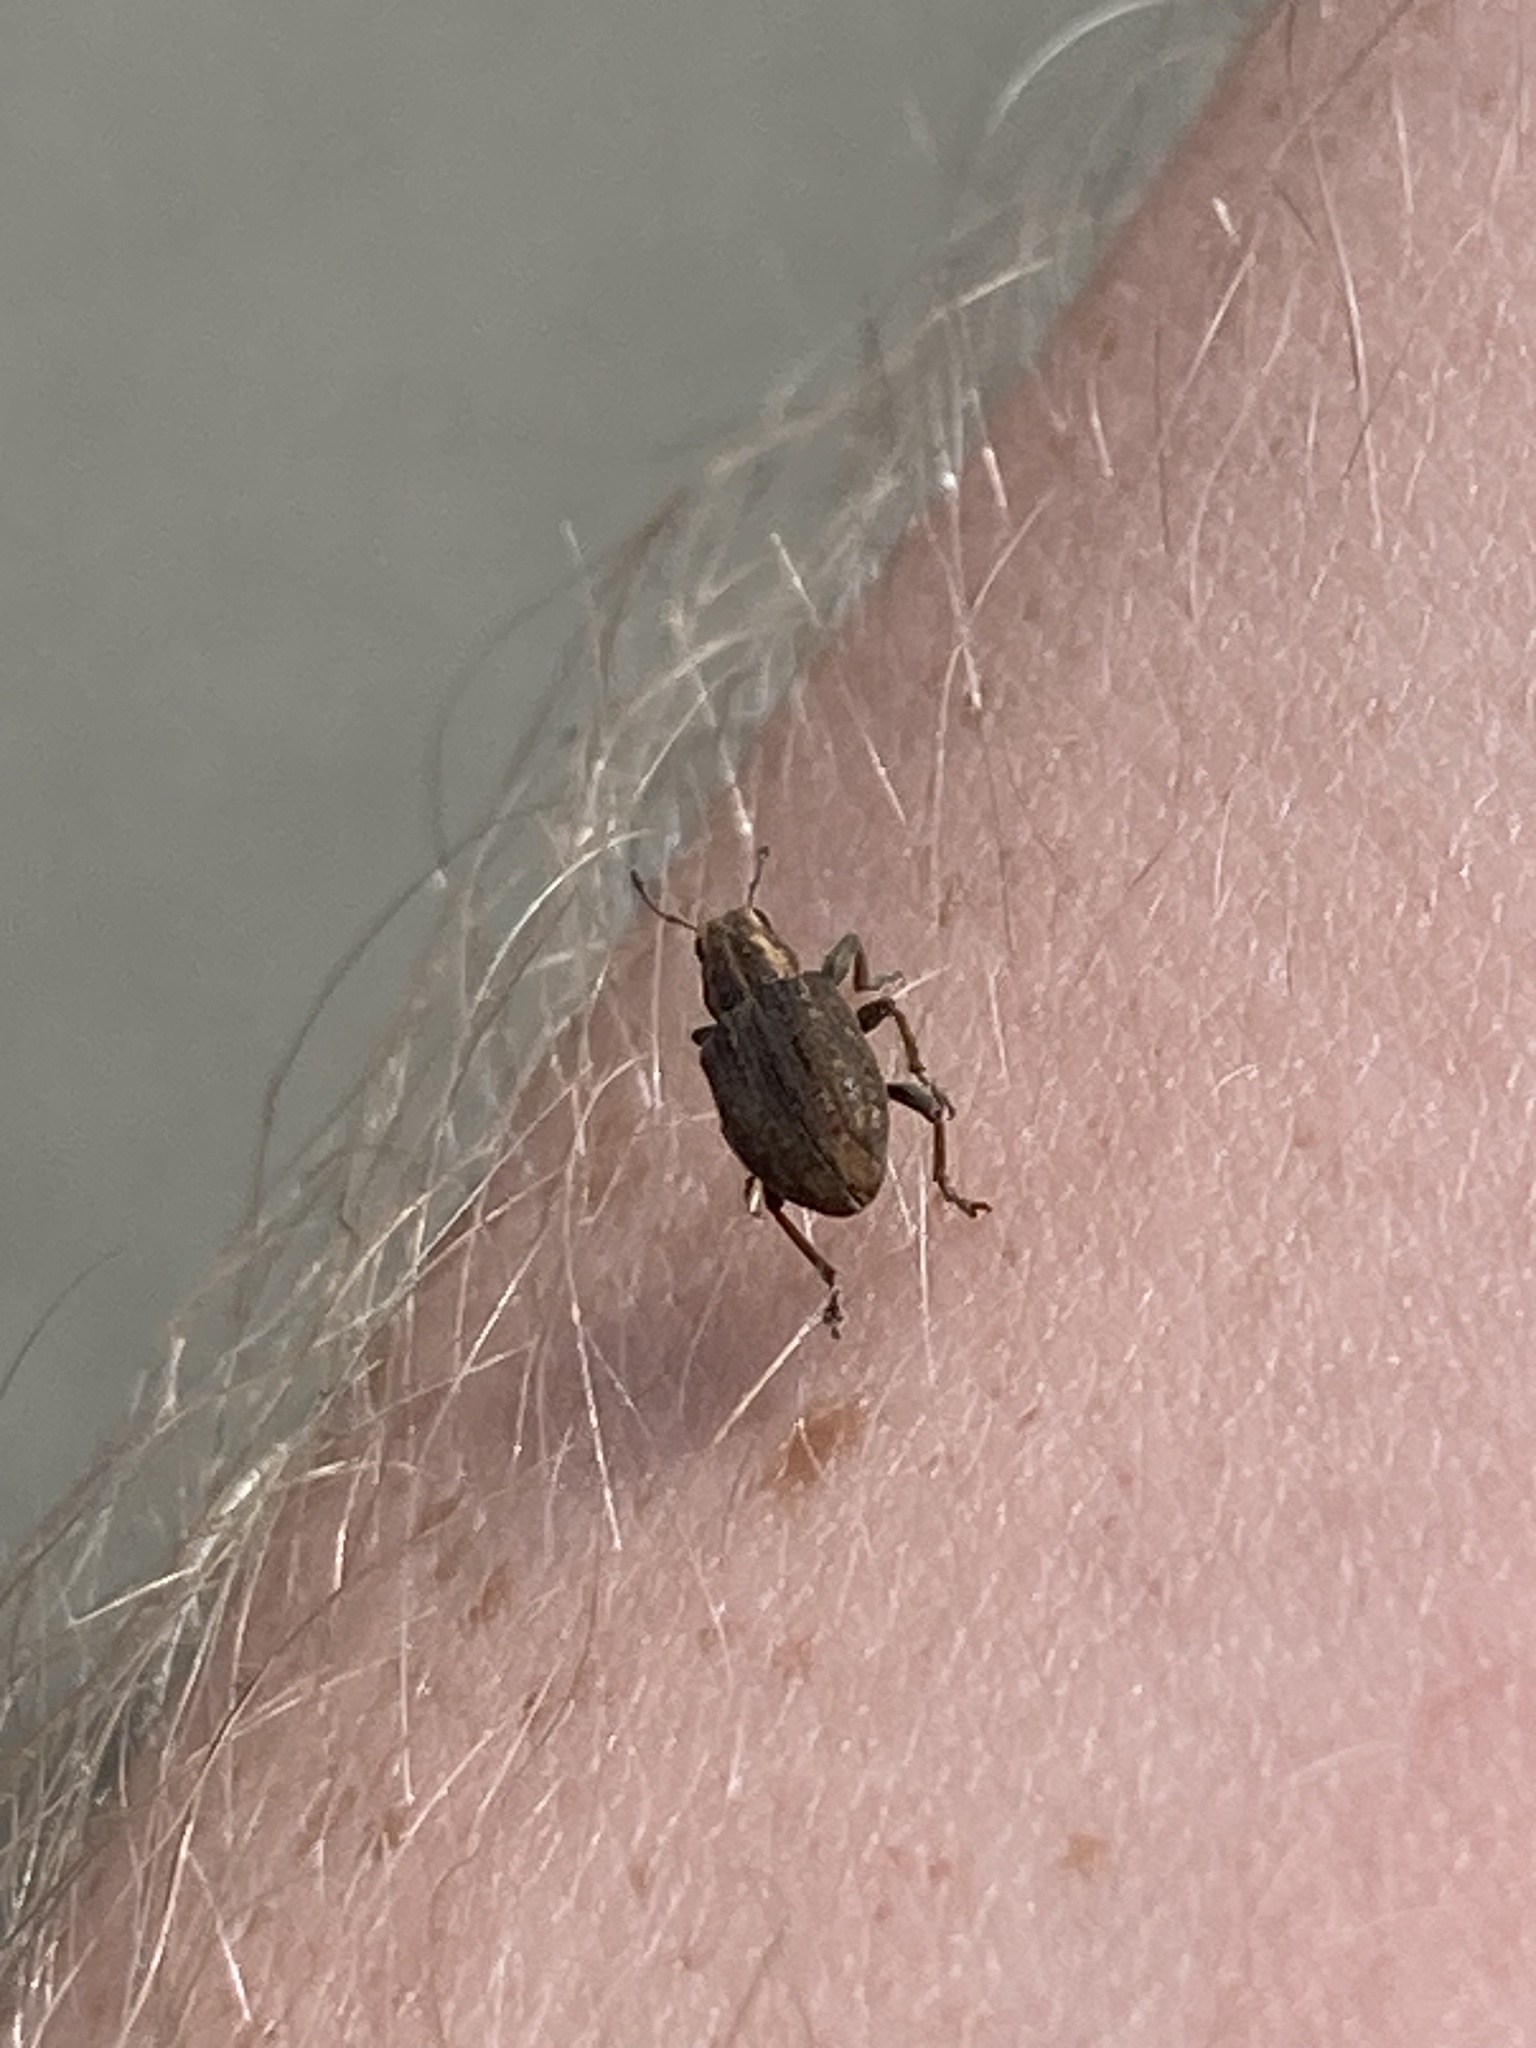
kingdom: Animalia
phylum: Arthropoda
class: Insecta
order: Coleoptera
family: Curculionidae
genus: Sitona
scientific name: Sitona obsoletus
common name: Weevil
